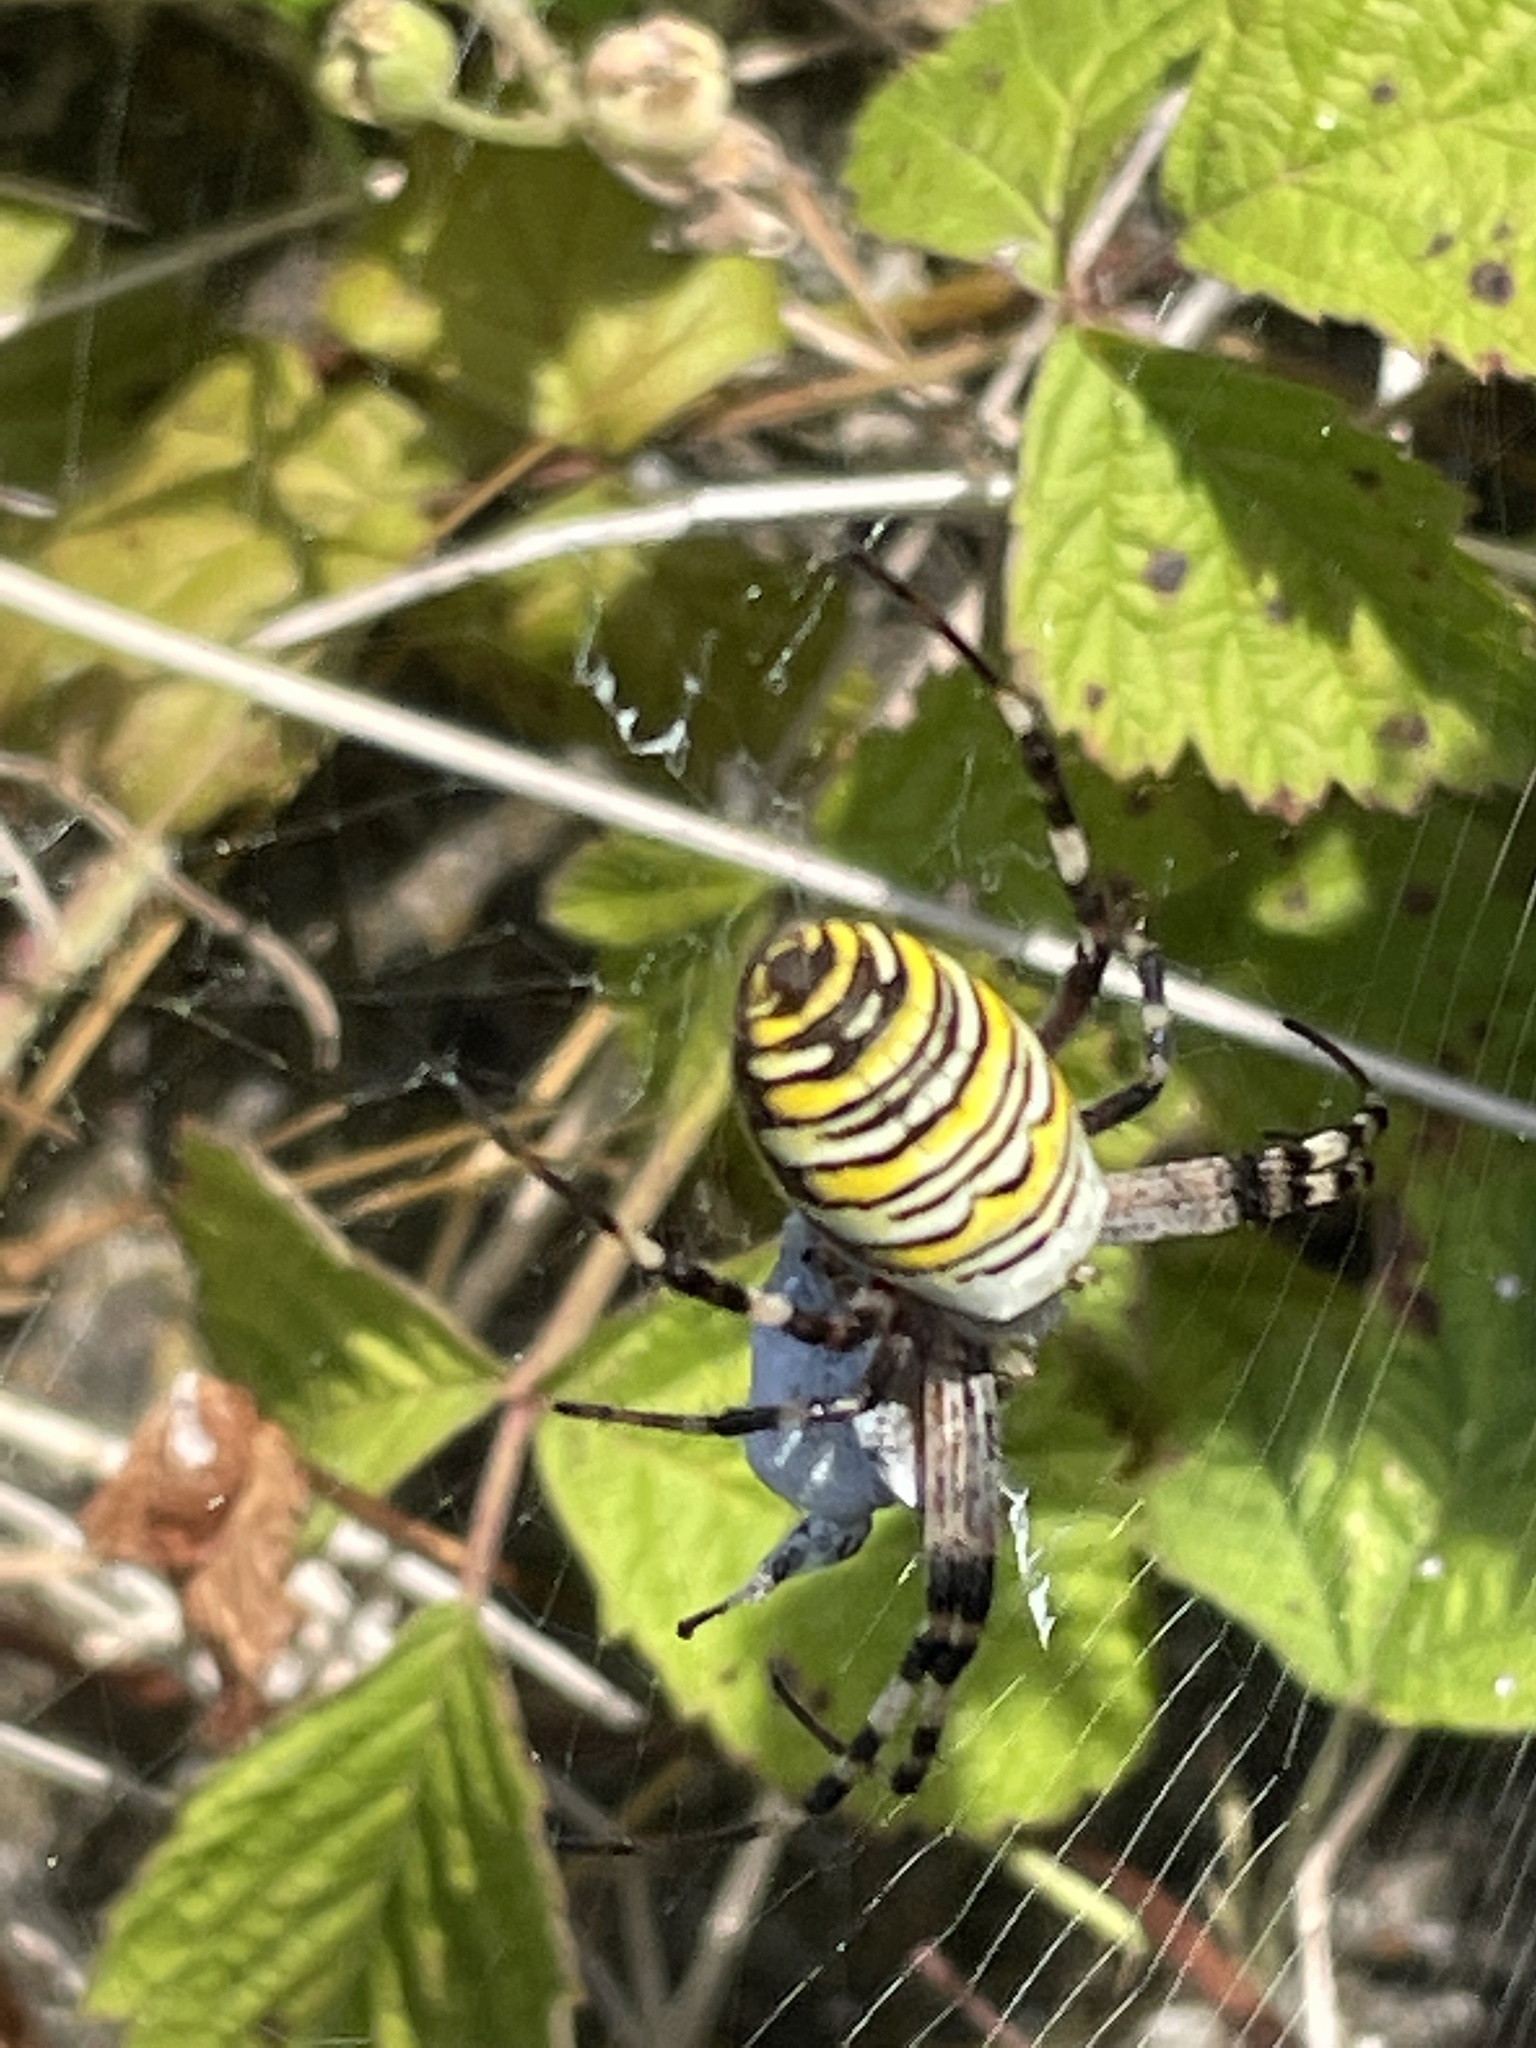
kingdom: Animalia
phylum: Arthropoda
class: Arachnida
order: Araneae
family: Araneidae
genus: Argiope
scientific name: Argiope bruennichi
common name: Wasp spider
